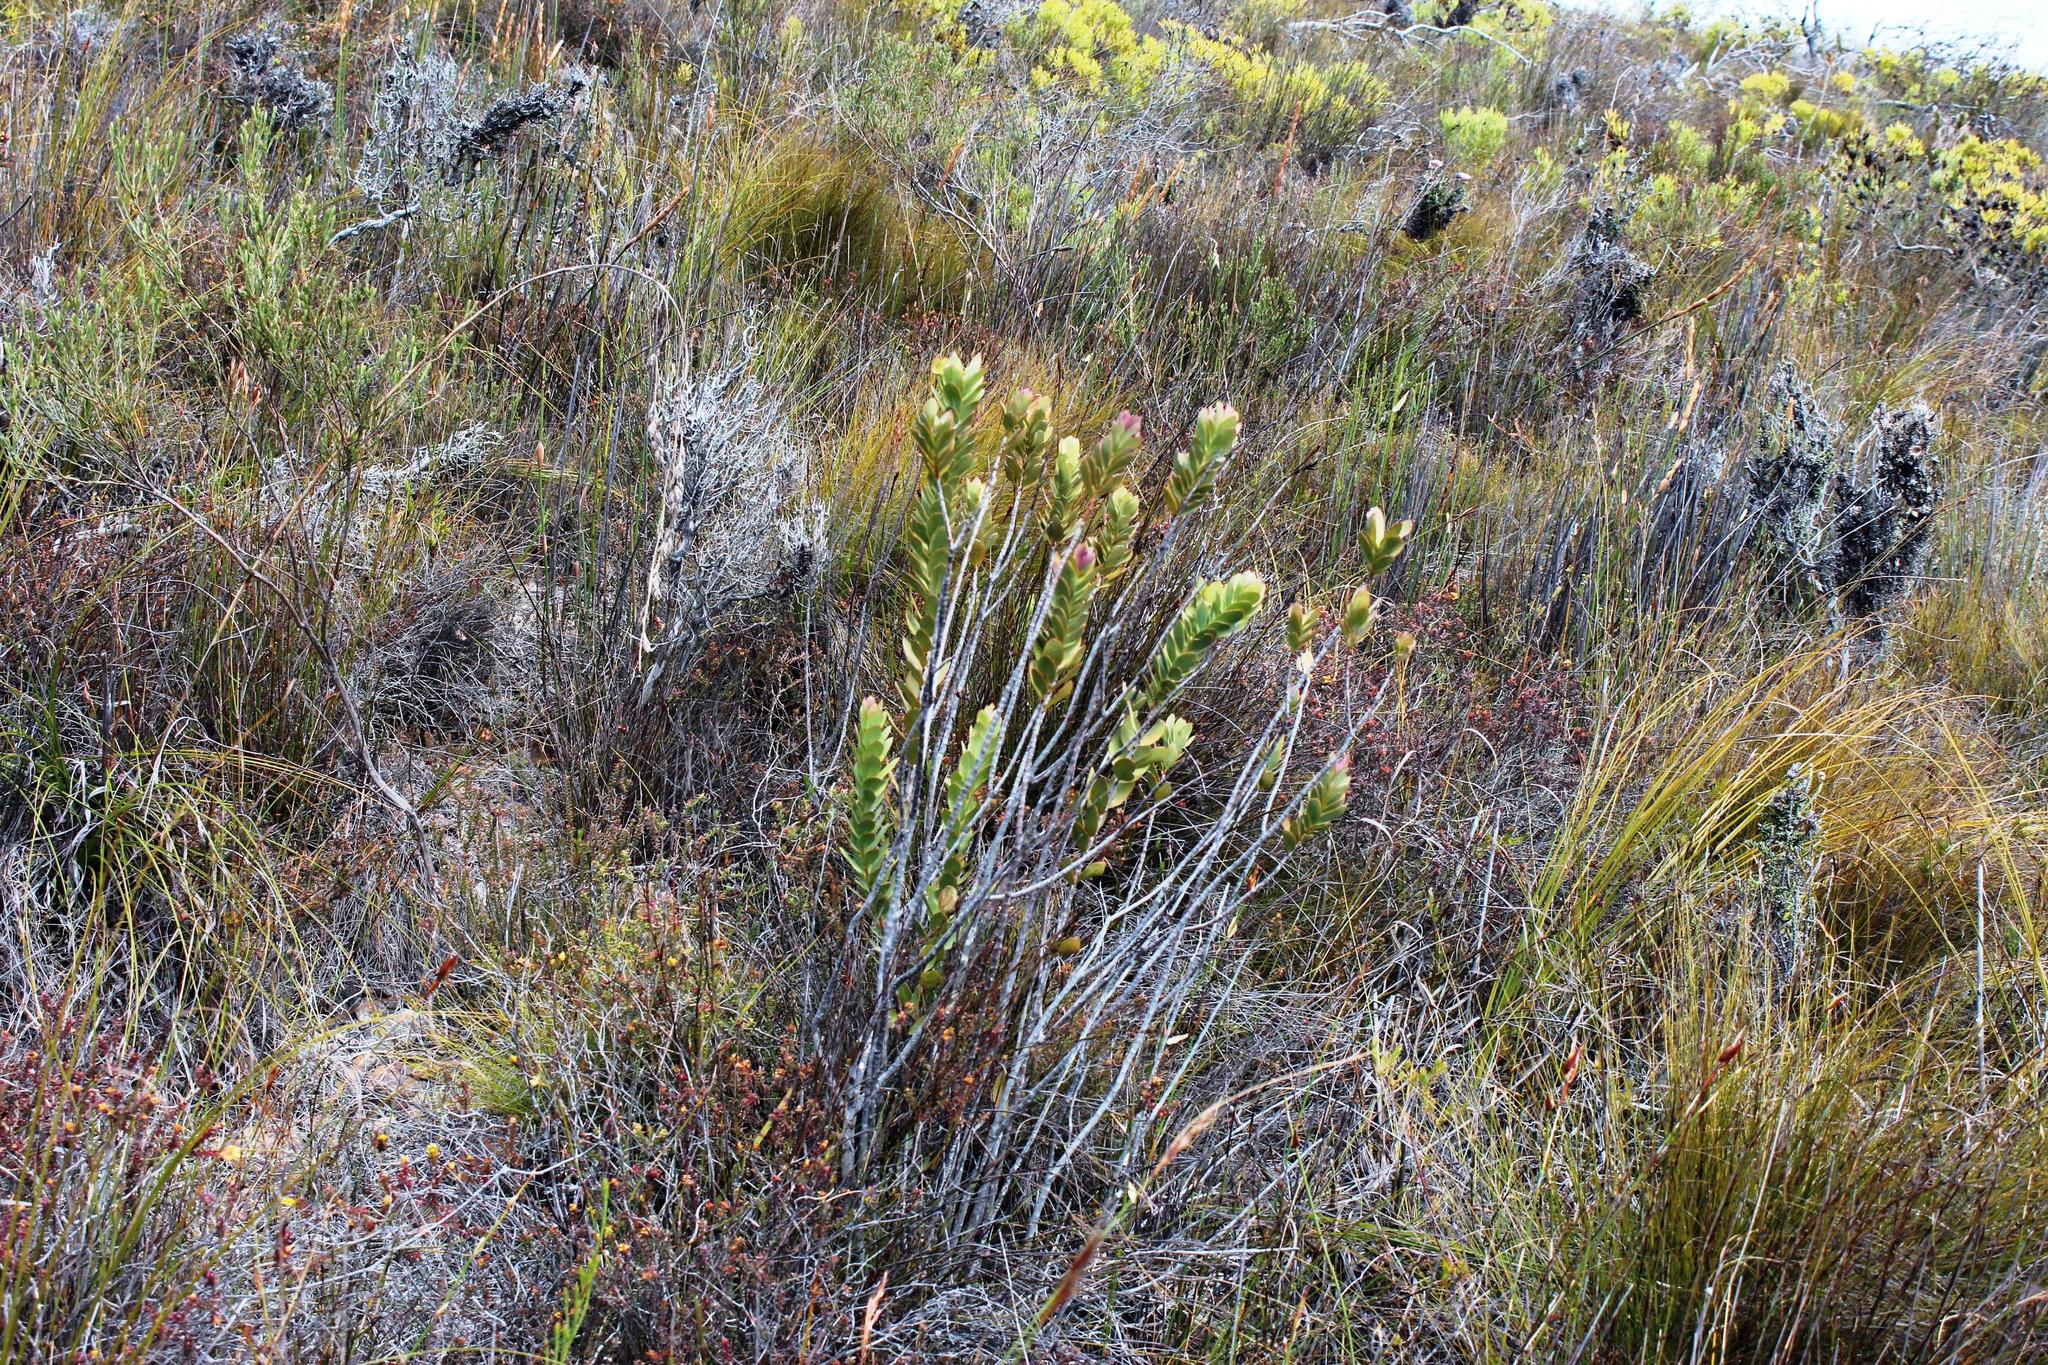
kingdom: Plantae
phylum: Tracheophyta
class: Magnoliopsida
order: Santalales
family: Santalaceae
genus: Osyris
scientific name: Osyris compressa
